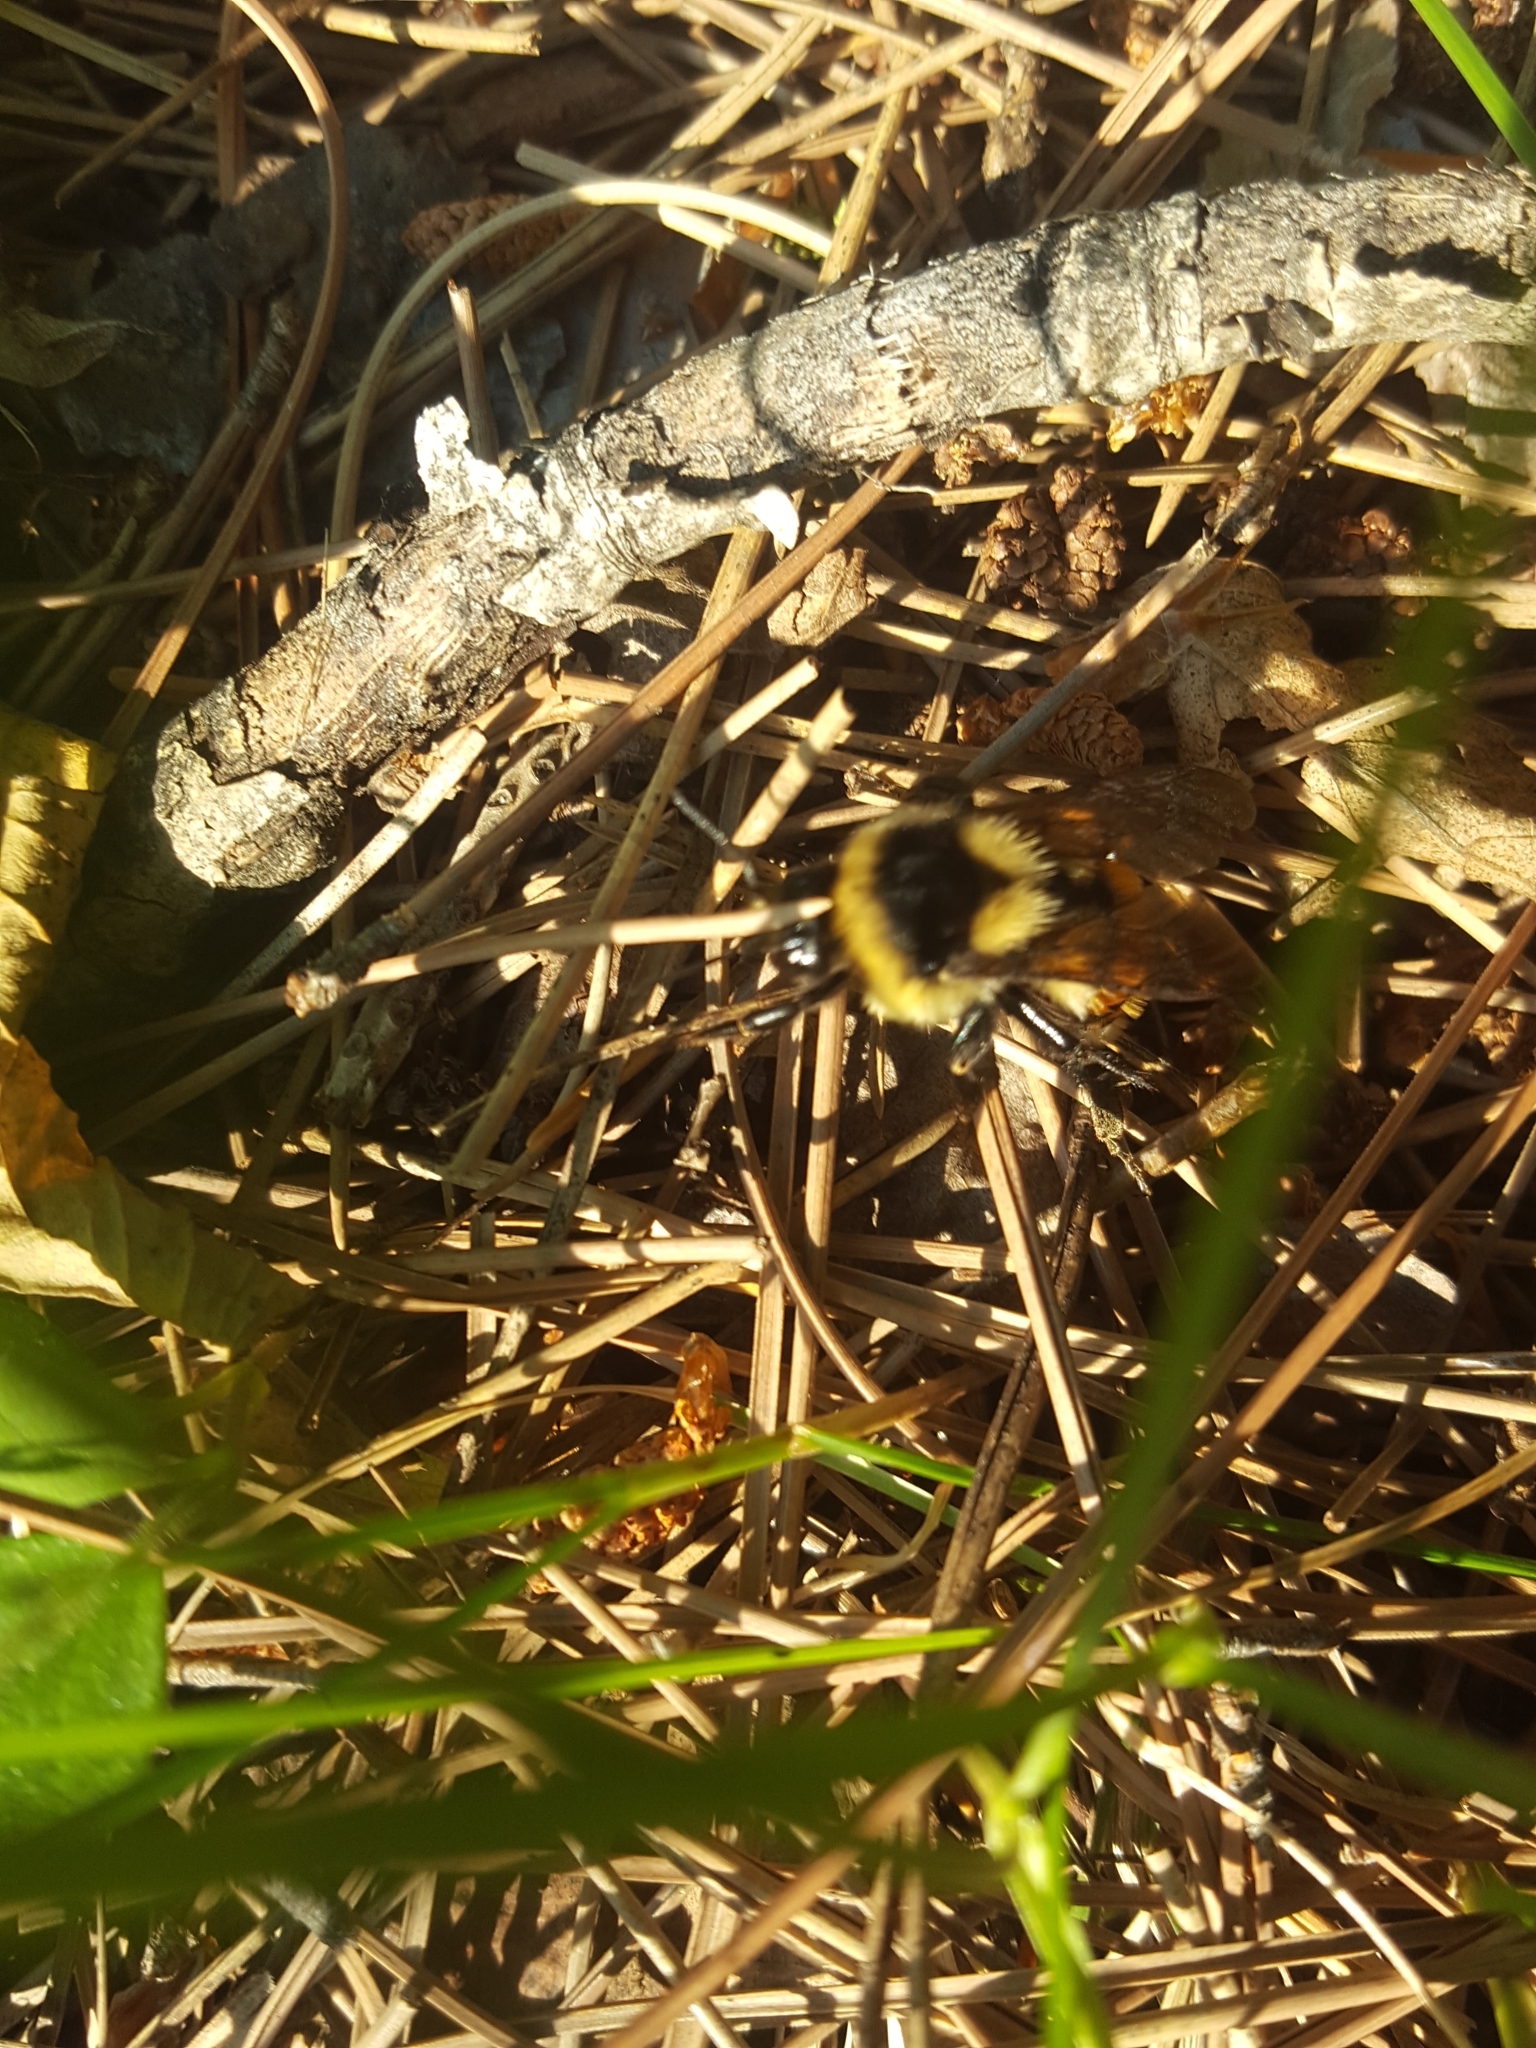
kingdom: Animalia
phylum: Arthropoda
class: Insecta
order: Hymenoptera
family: Apidae
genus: Bombus
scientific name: Bombus ternarius
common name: Tri-colored bumble bee
